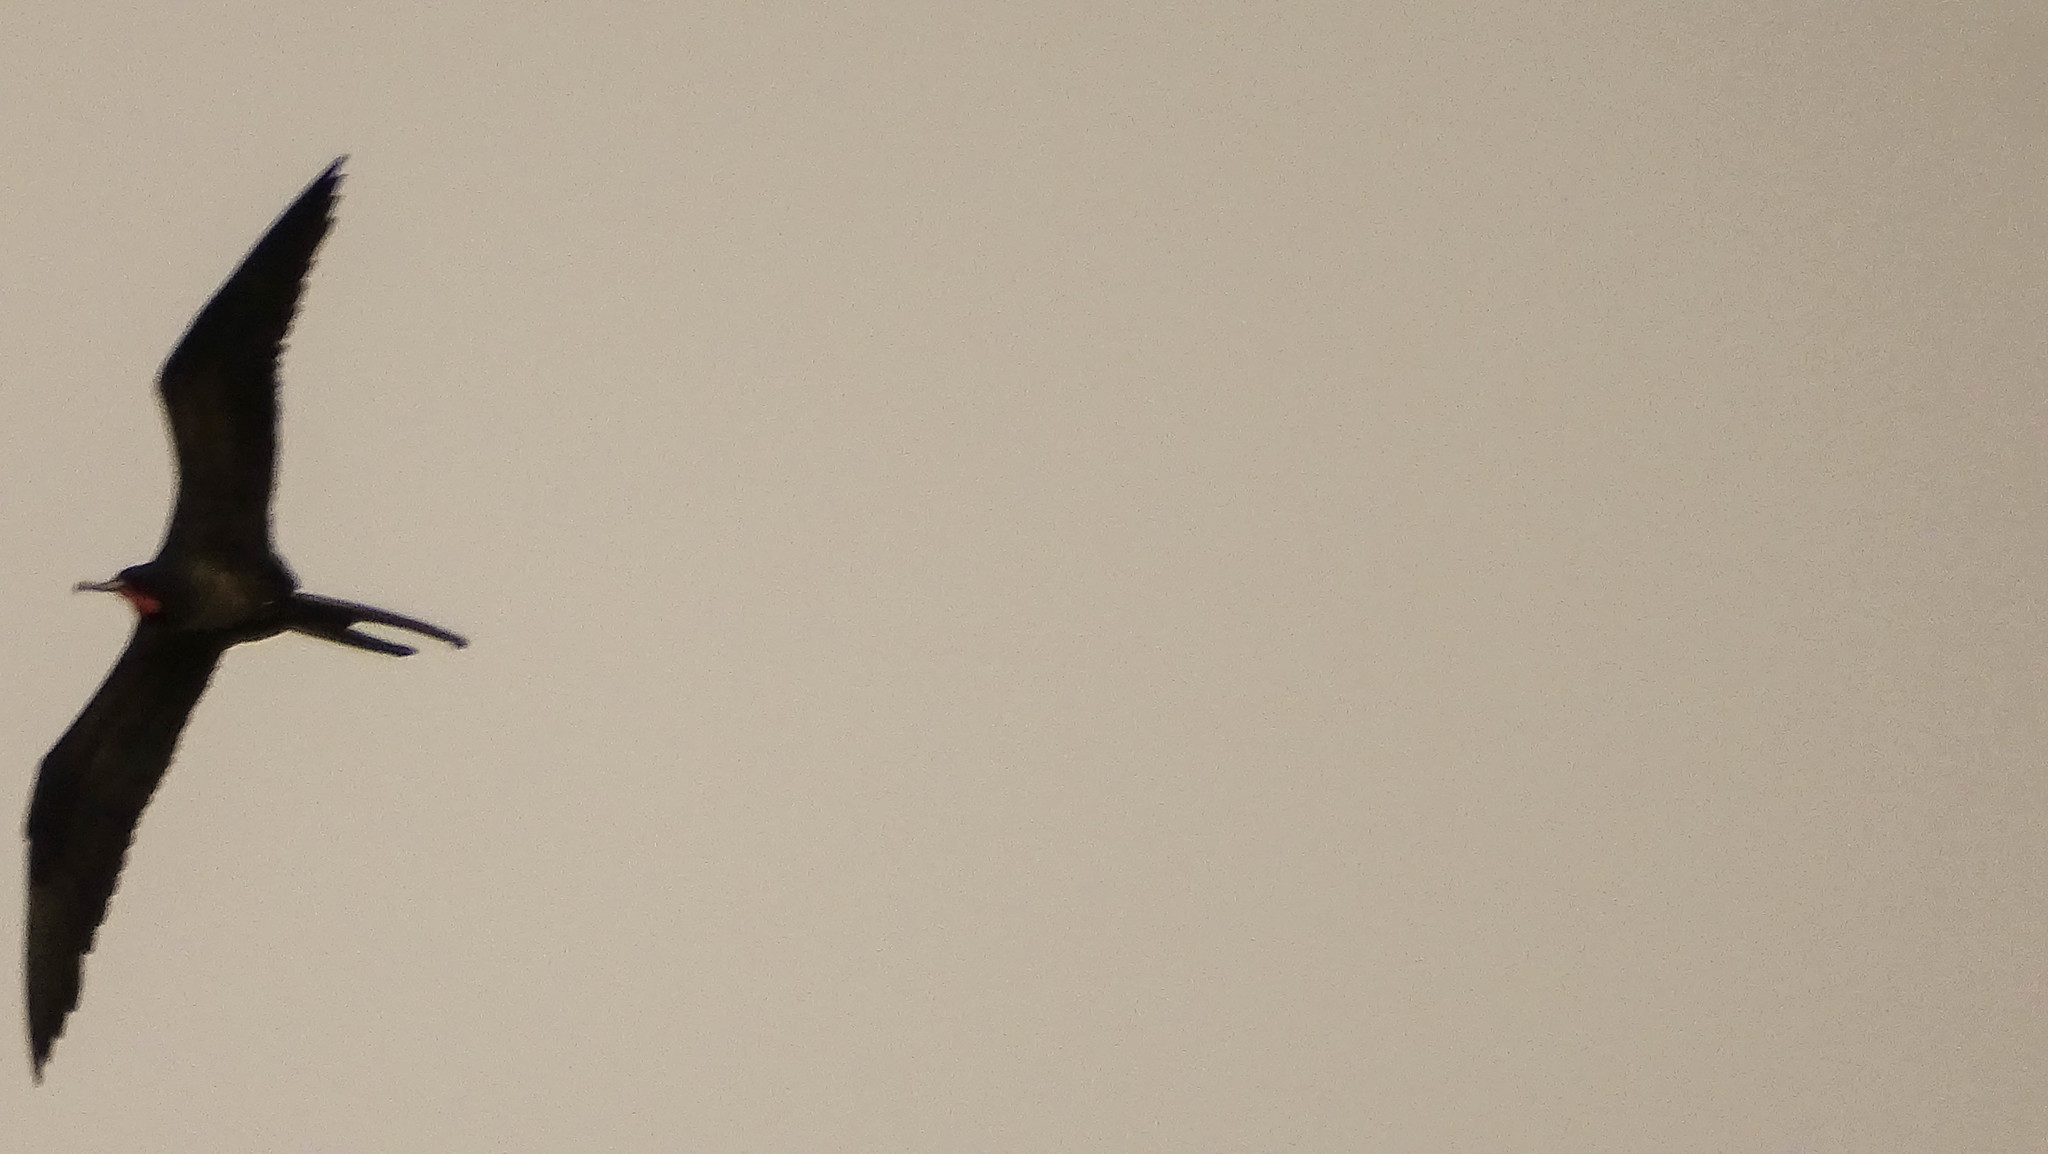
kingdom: Animalia
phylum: Chordata
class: Aves
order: Suliformes
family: Fregatidae
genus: Fregata
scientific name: Fregata magnificens
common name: Magnificent frigatebird
